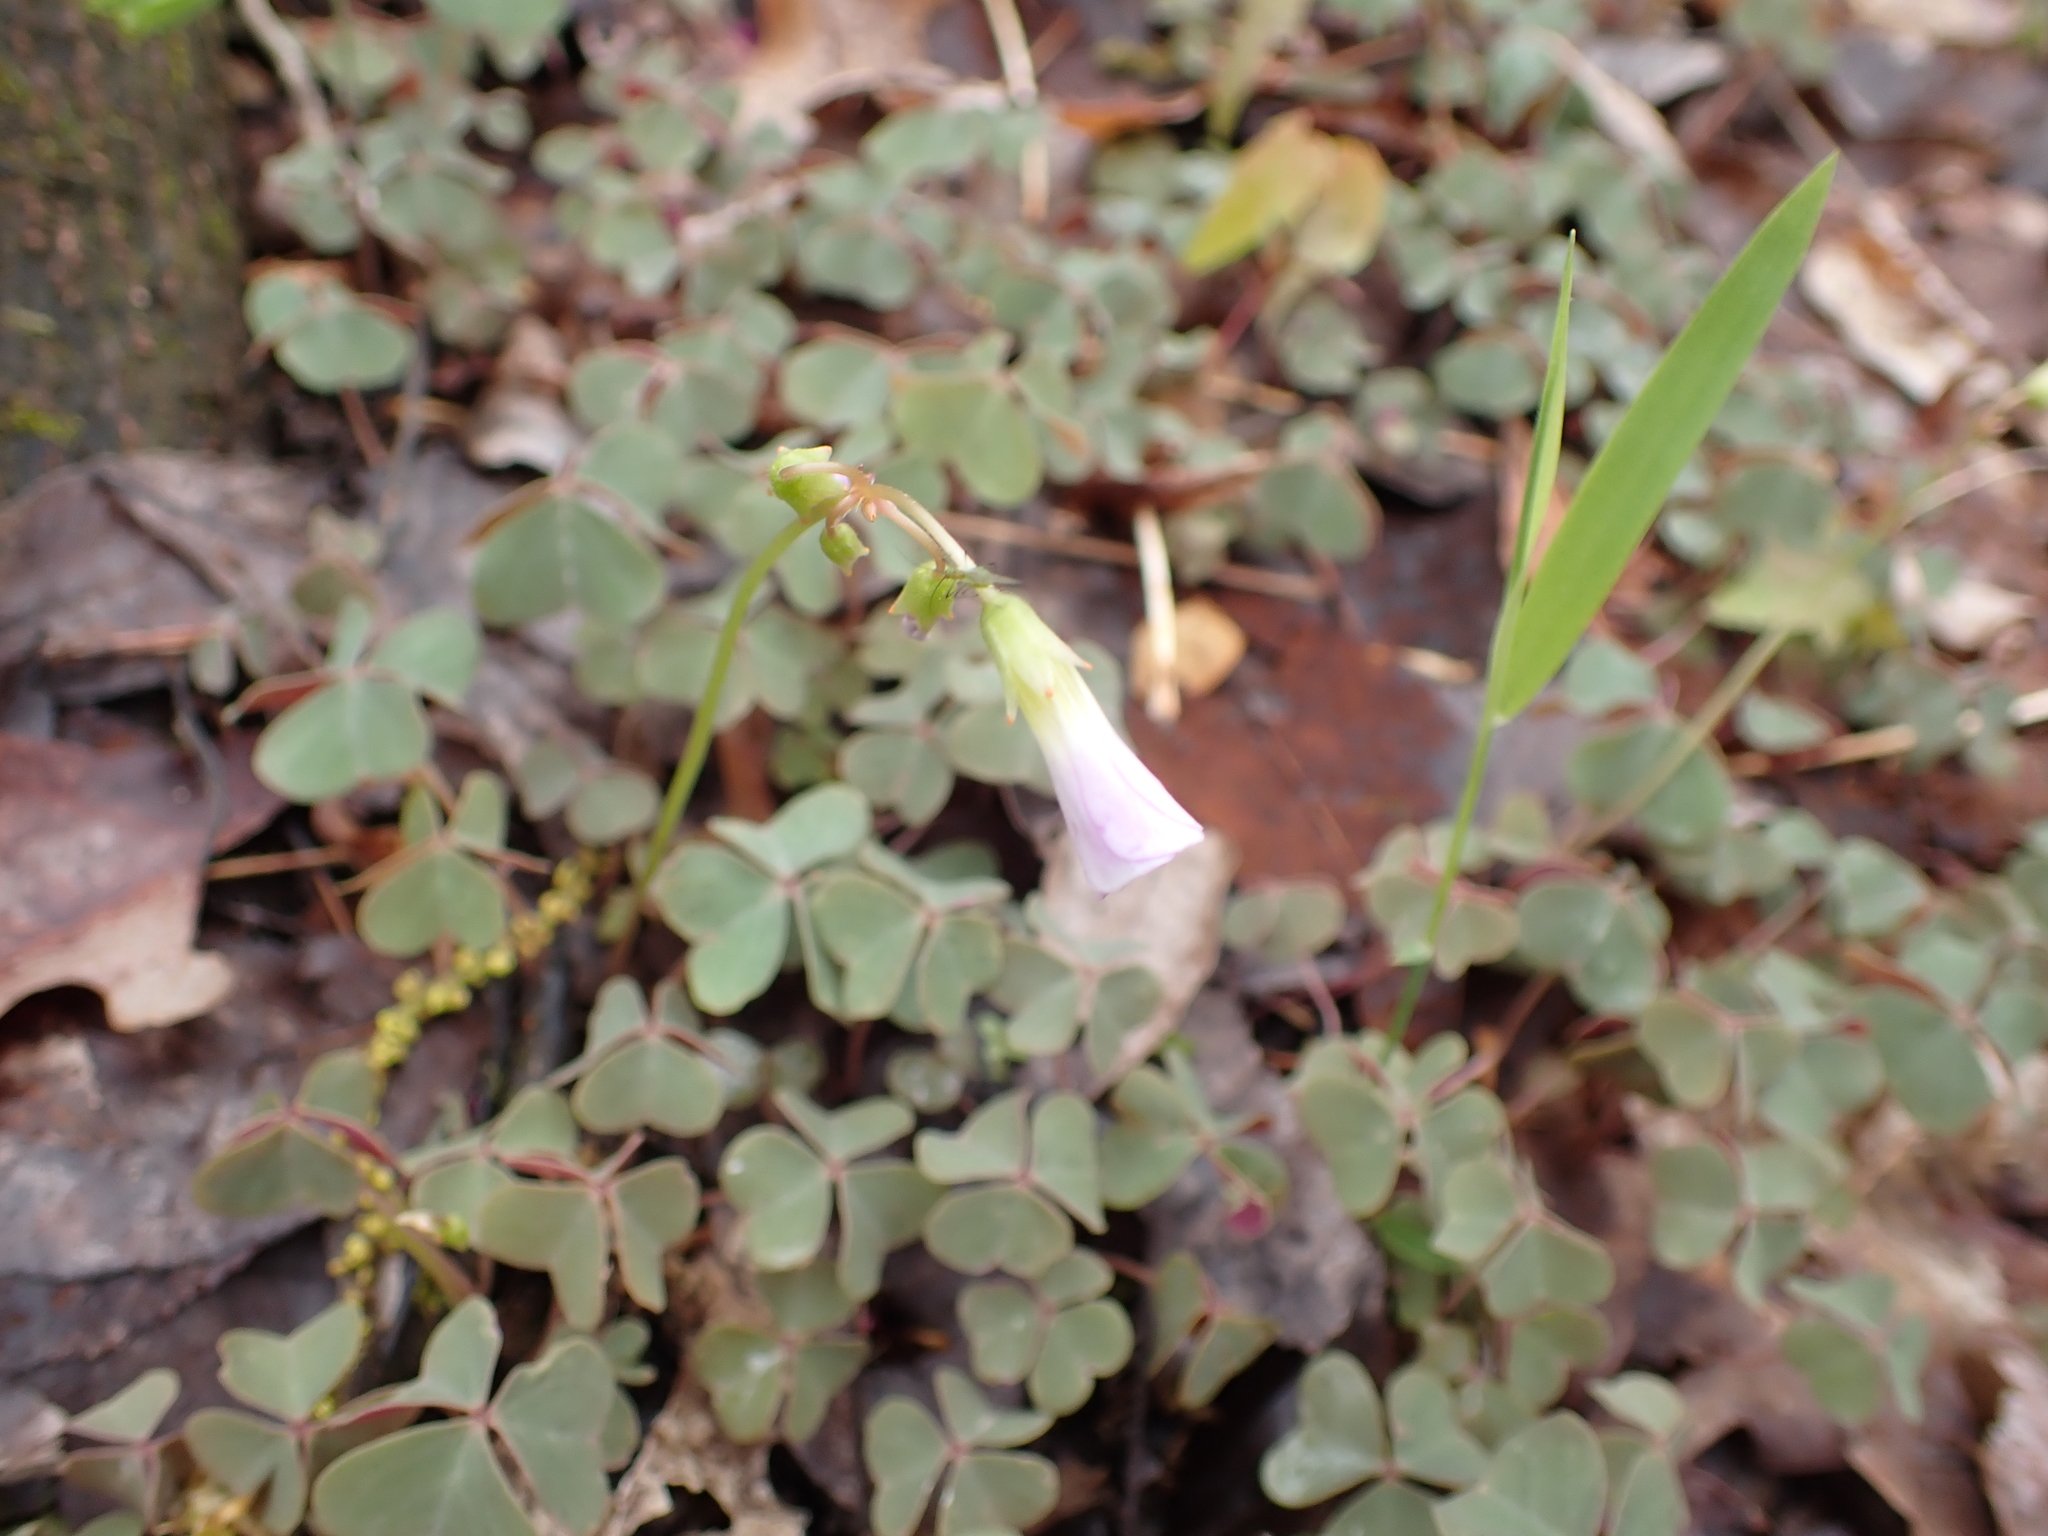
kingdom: Plantae
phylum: Tracheophyta
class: Magnoliopsida
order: Oxalidales
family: Oxalidaceae
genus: Oxalis
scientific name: Oxalis violacea
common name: Violet wood-sorrel
